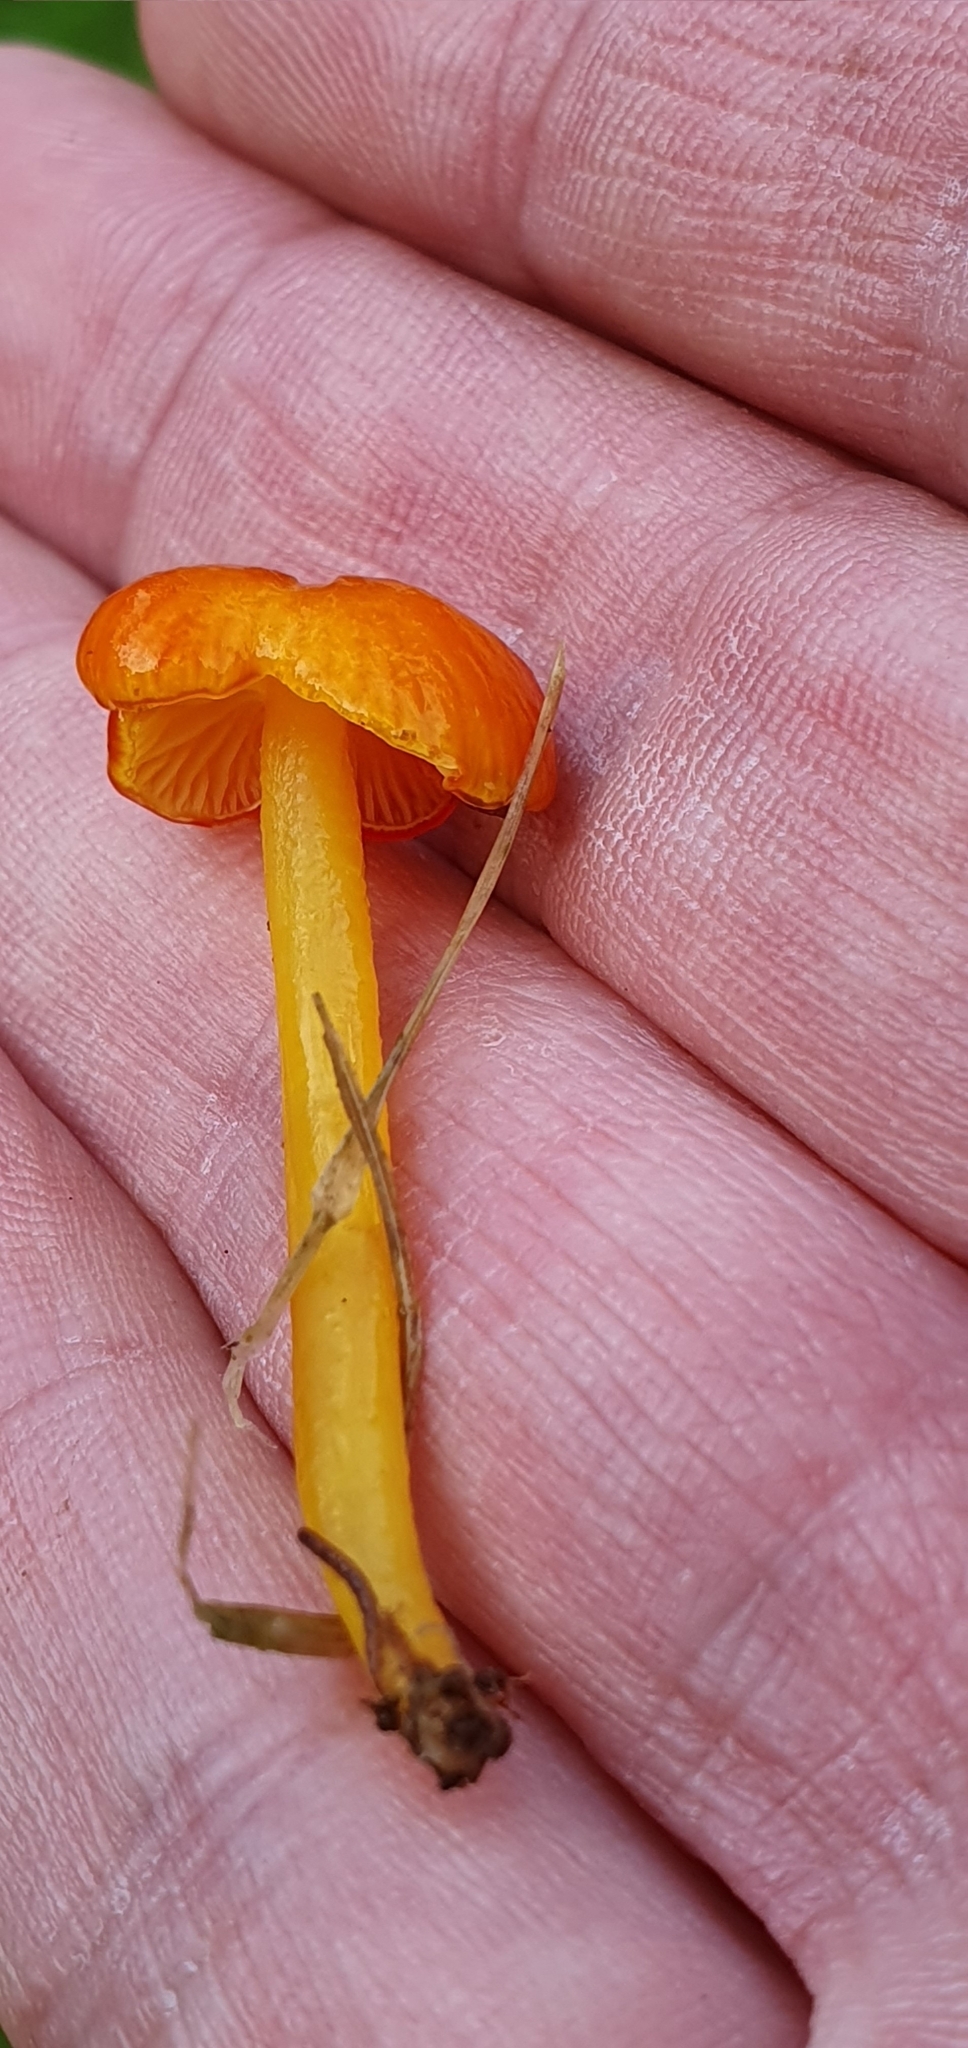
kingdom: Fungi
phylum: Basidiomycota
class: Agaricomycetes
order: Agaricales
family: Hygrophoraceae
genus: Hygrocybe
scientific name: Hygrocybe glutinipes
